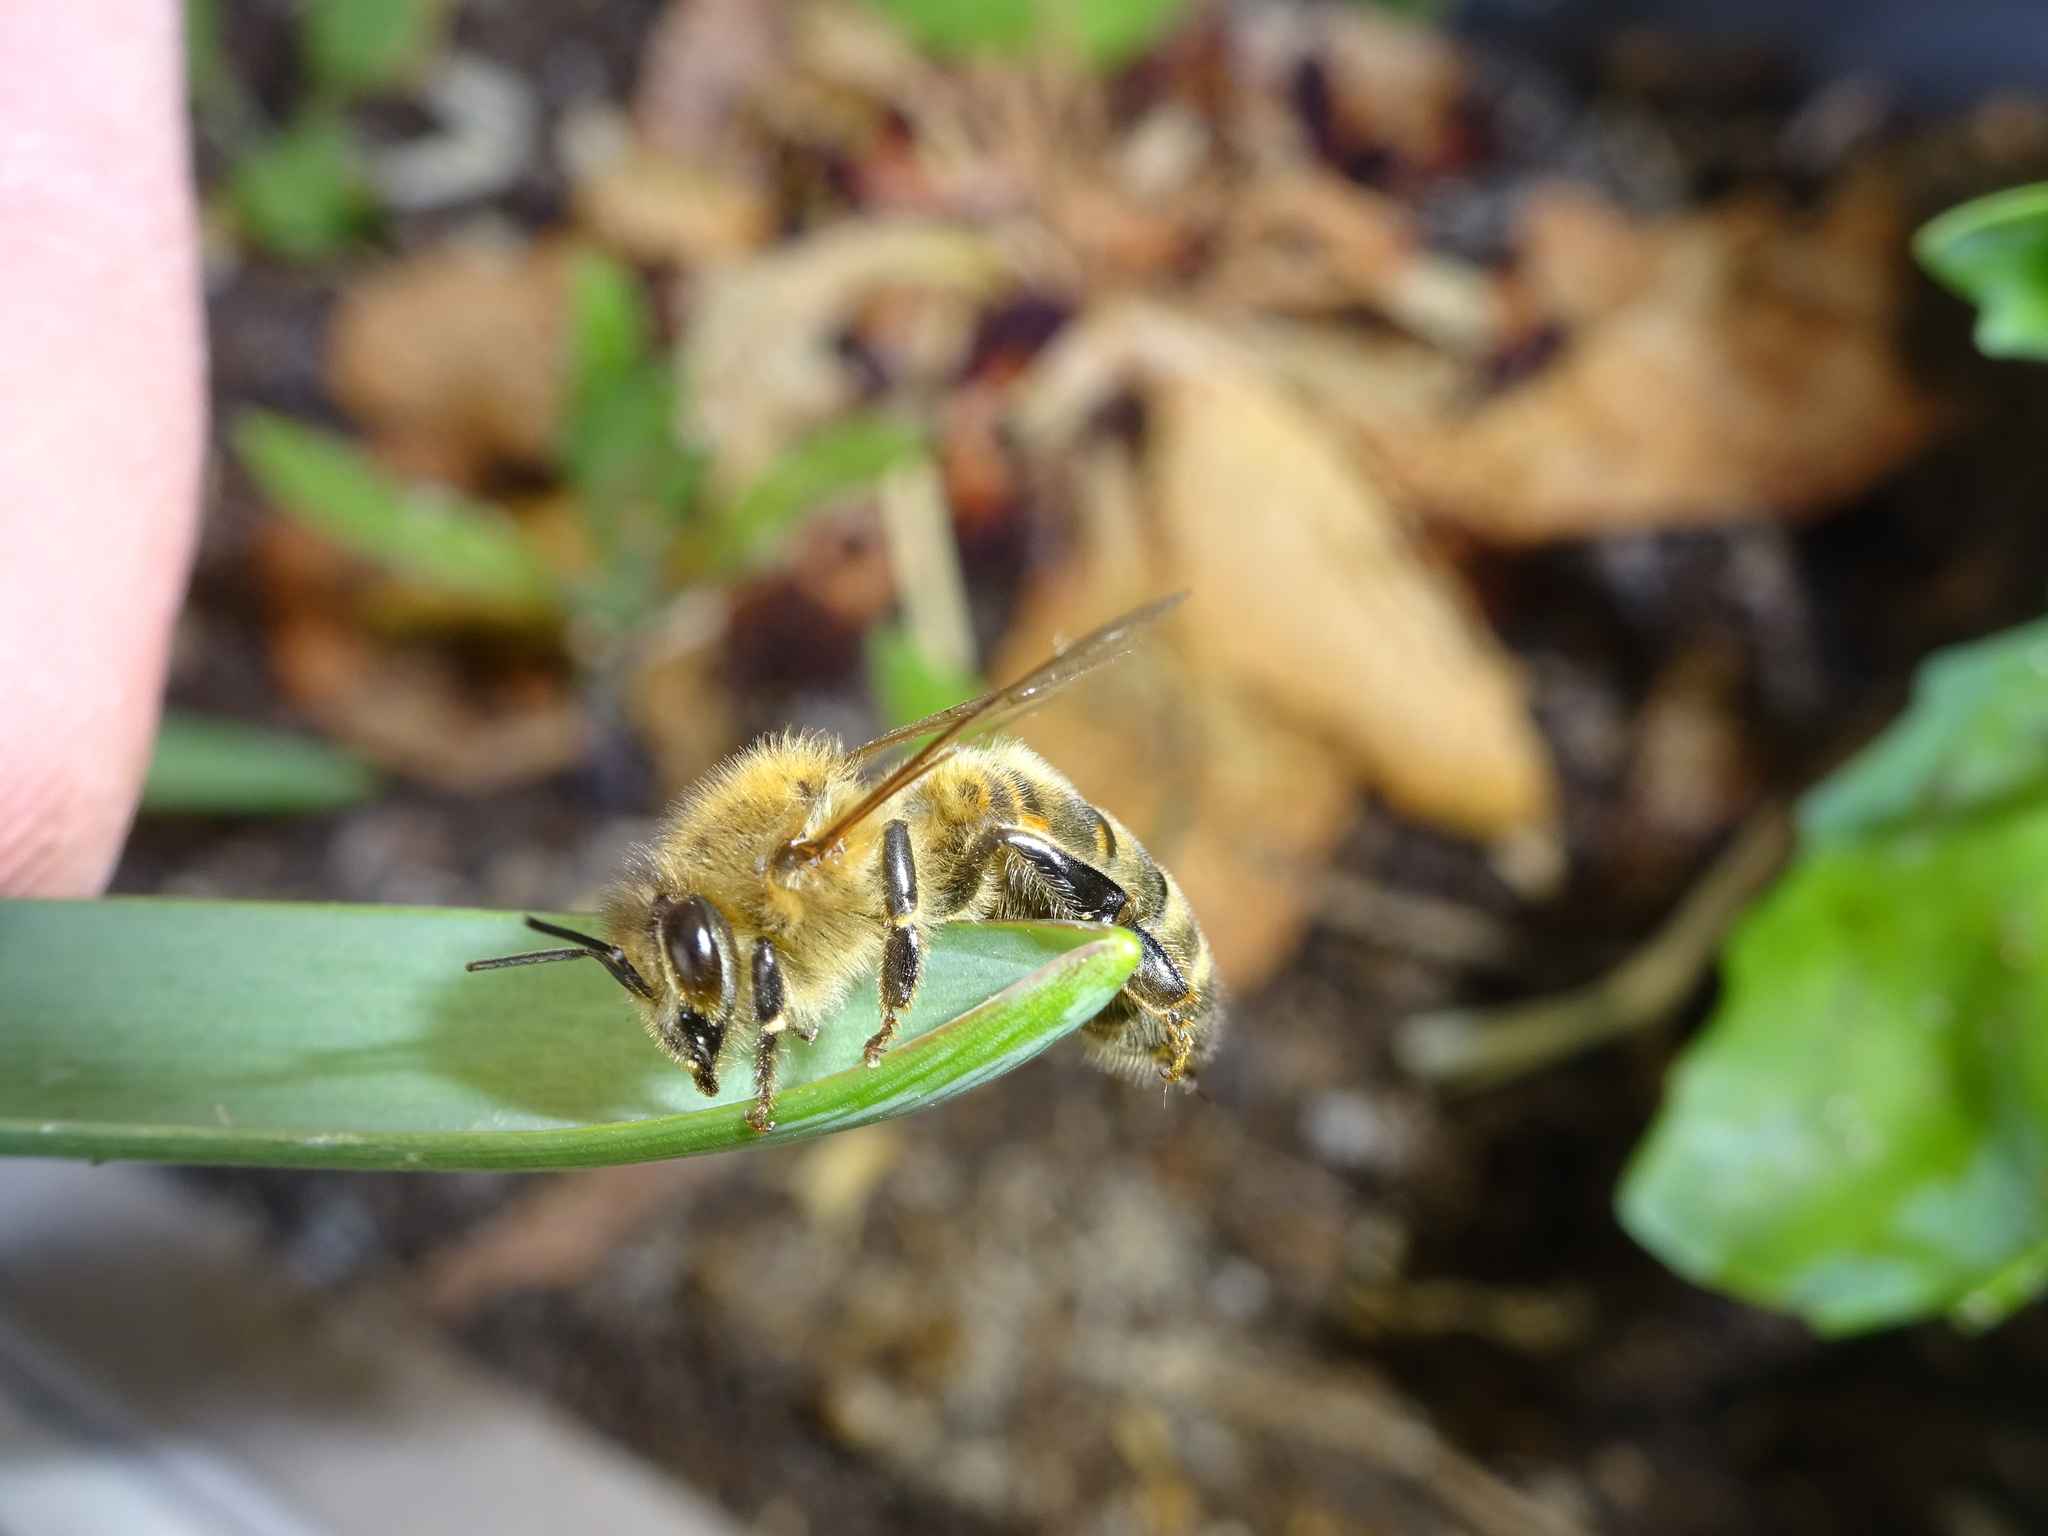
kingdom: Animalia
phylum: Arthropoda
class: Insecta
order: Hymenoptera
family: Apidae
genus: Apis
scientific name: Apis mellifera
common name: Honey bee
